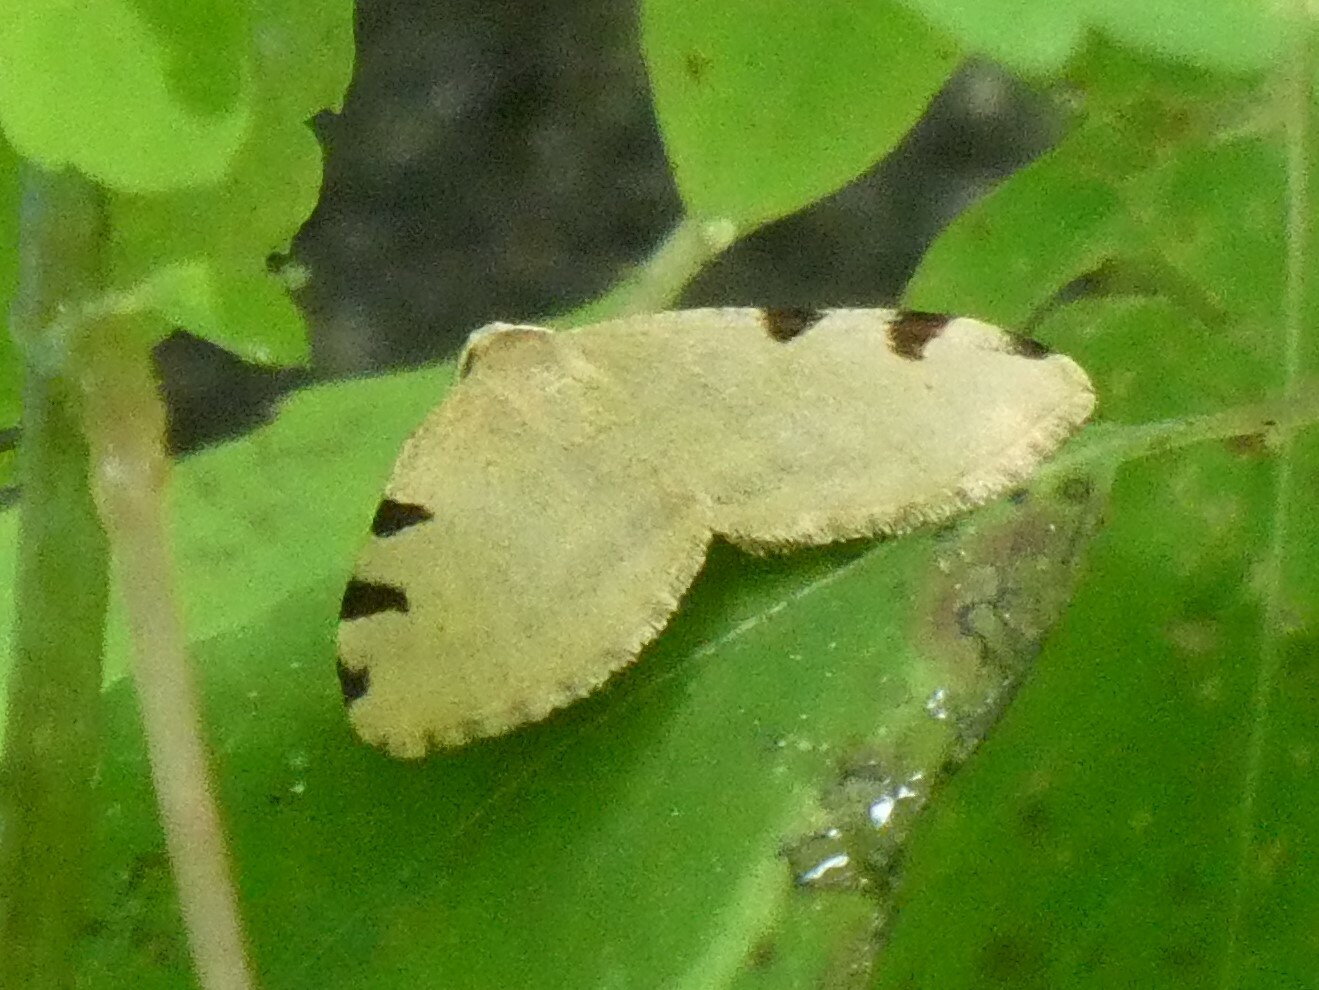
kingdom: Animalia
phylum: Arthropoda
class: Insecta
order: Lepidoptera
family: Geometridae
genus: Heterophleps
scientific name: Heterophleps triguttaria
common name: Three-spotted fillip
